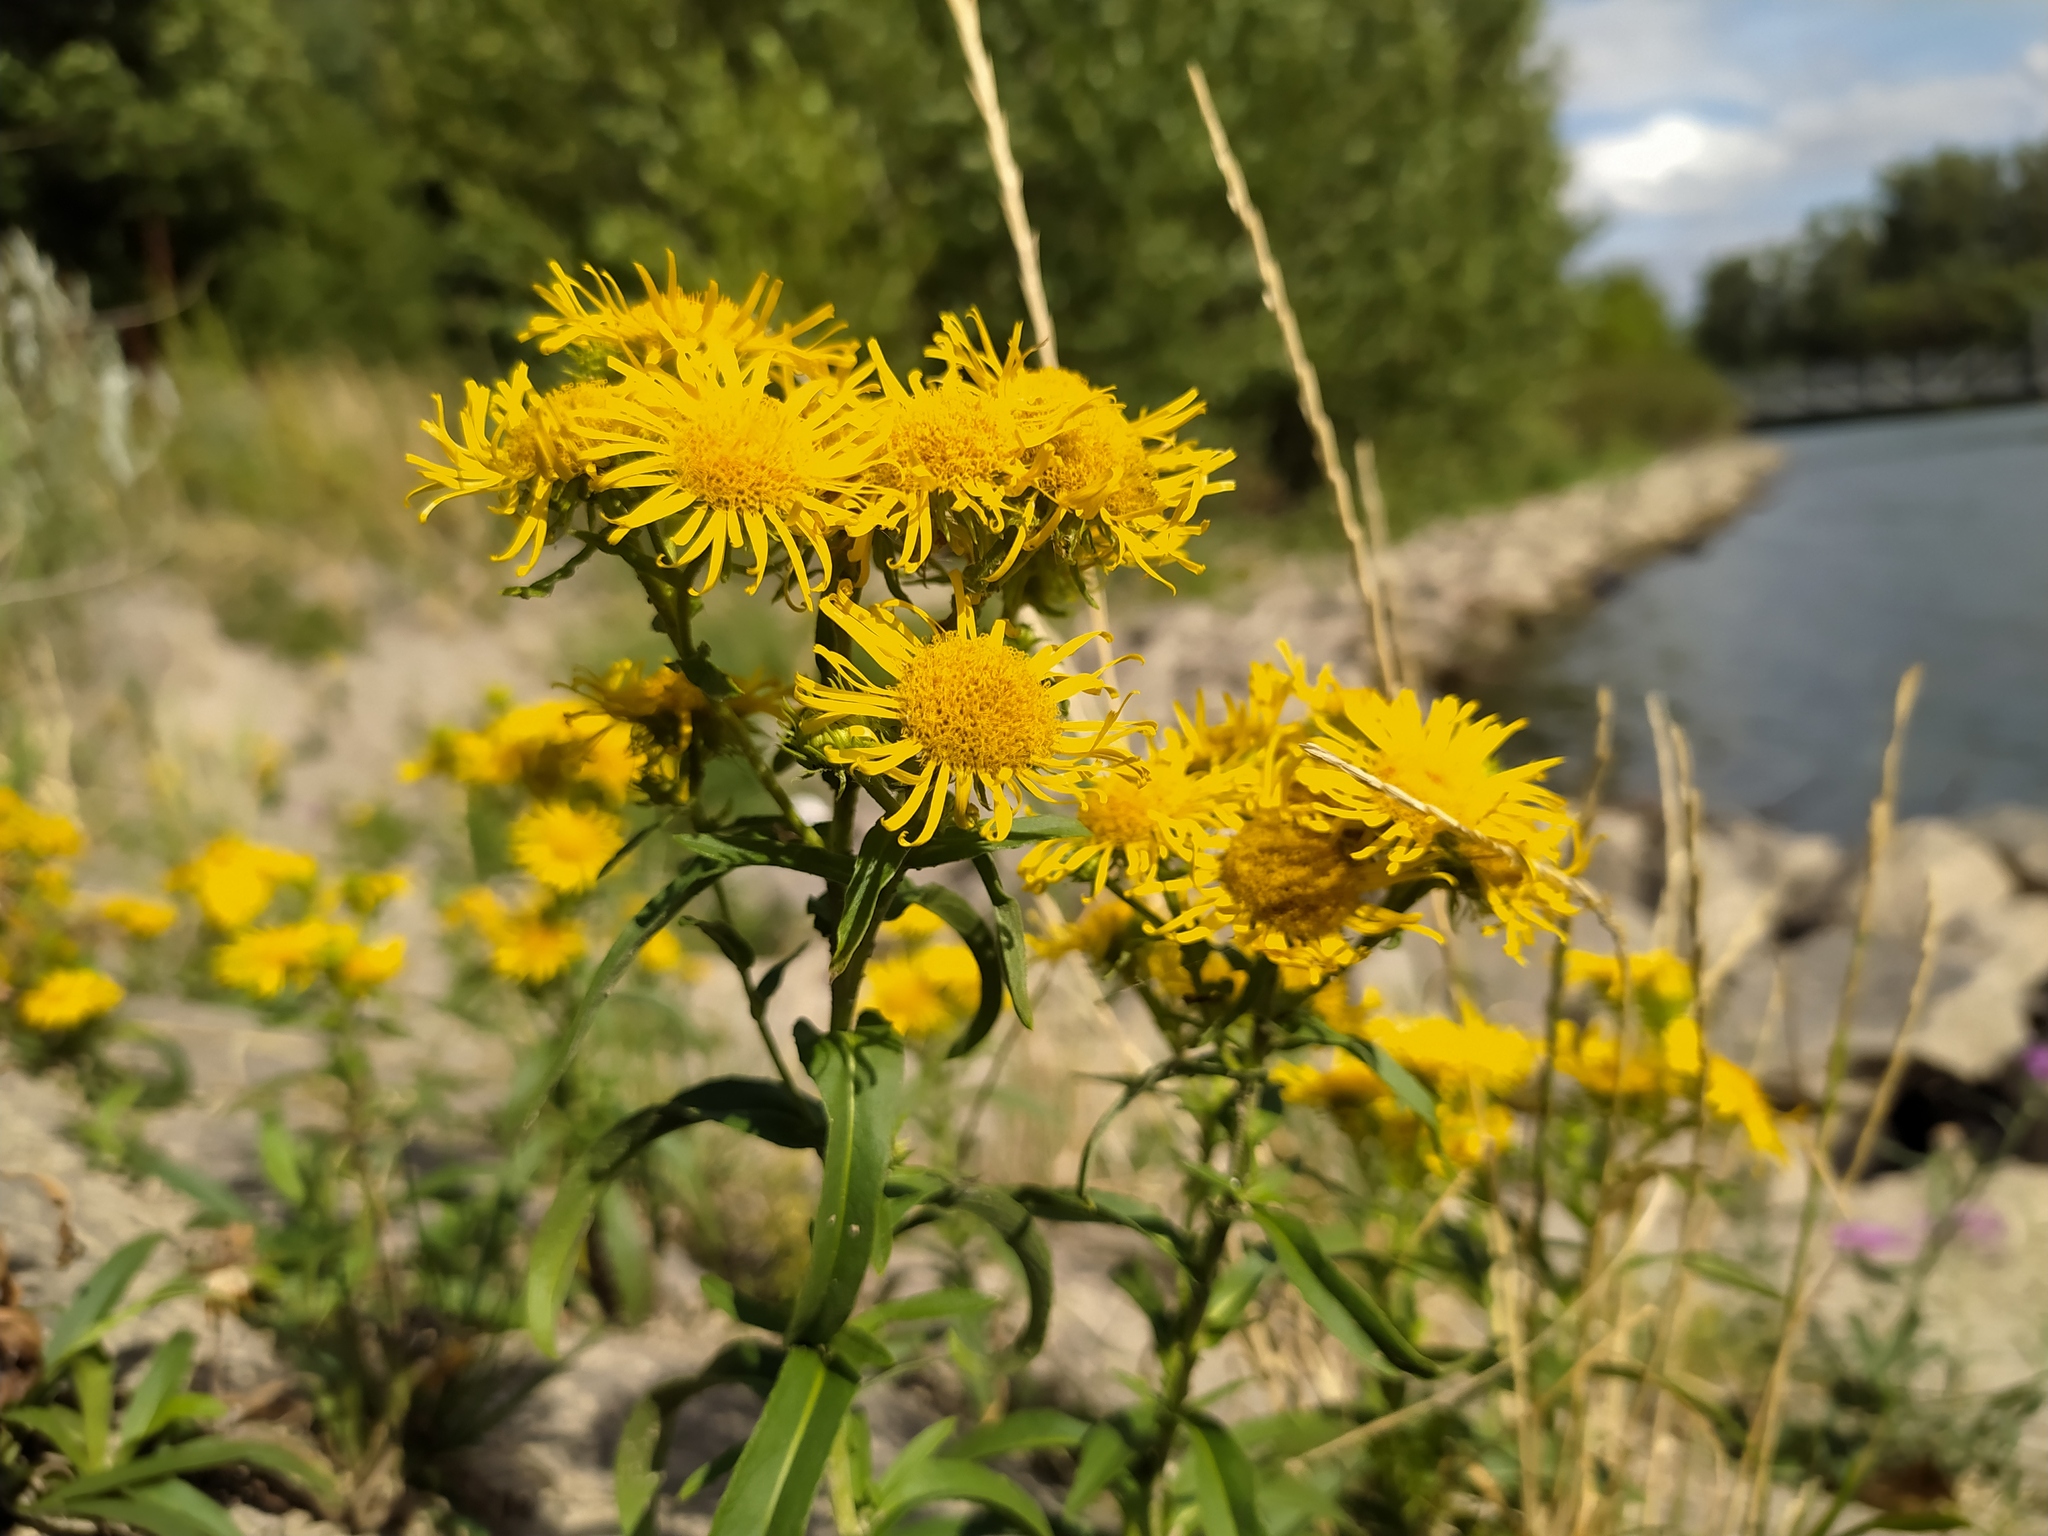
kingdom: Plantae
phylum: Tracheophyta
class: Magnoliopsida
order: Asterales
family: Asteraceae
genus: Pentanema
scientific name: Pentanema britannicum
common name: British elecampane
